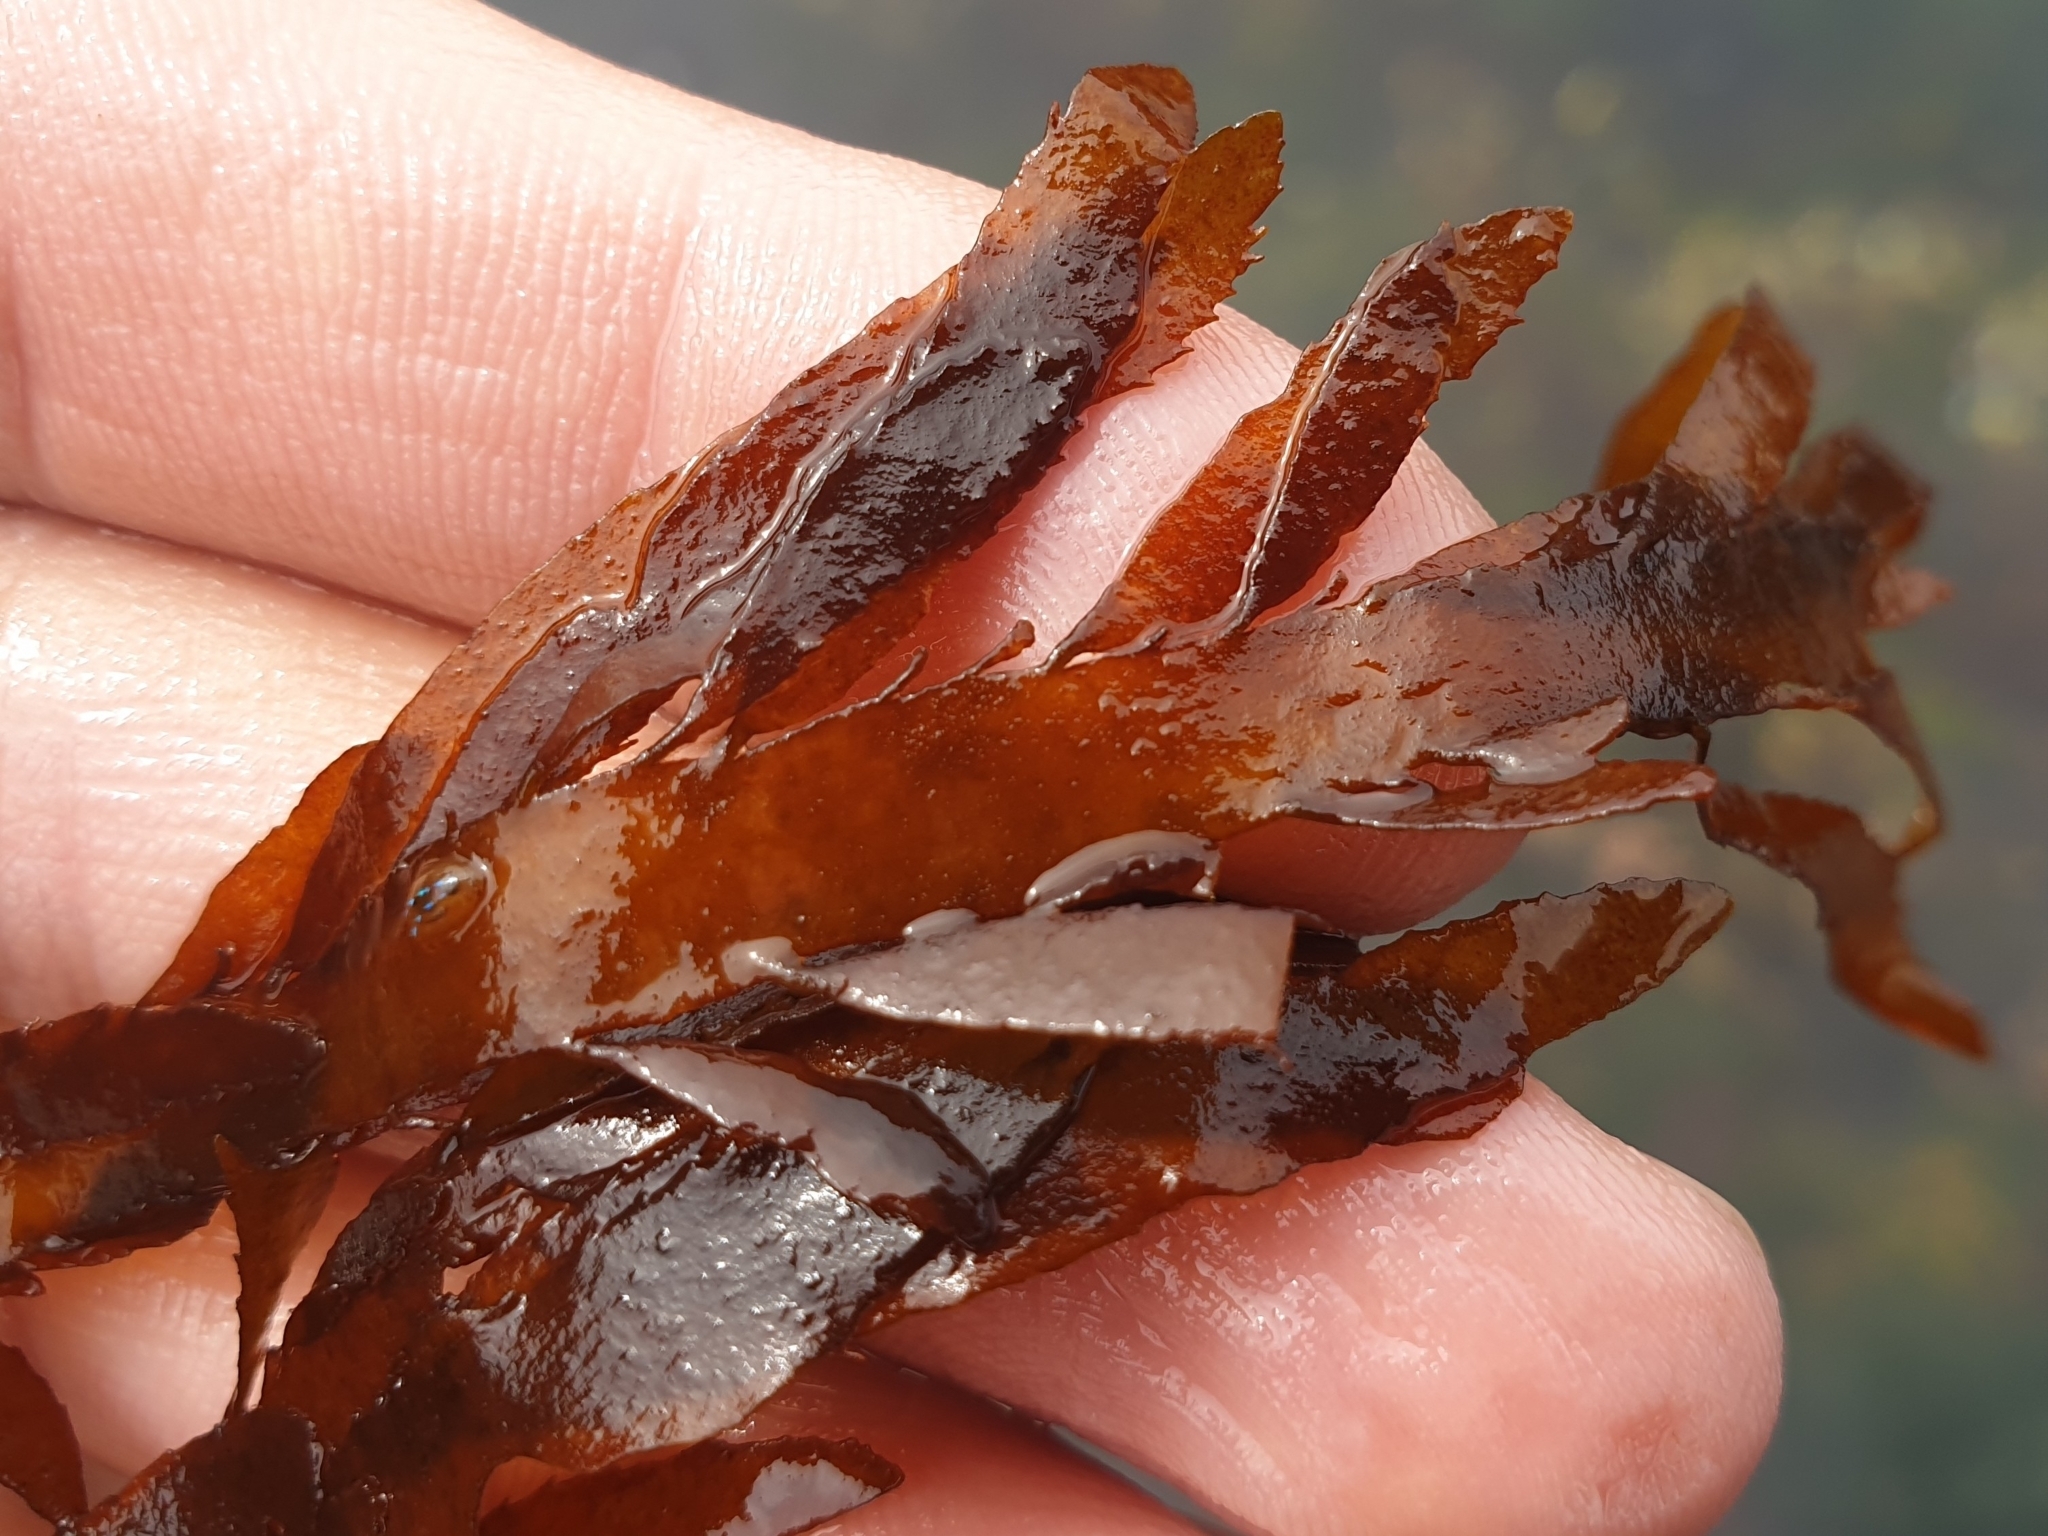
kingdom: Chromista
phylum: Ochrophyta
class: Phaeophyceae
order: Desmarestiales
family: Desmarestiaceae
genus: Desmarestia
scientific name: Desmarestia ligulata
